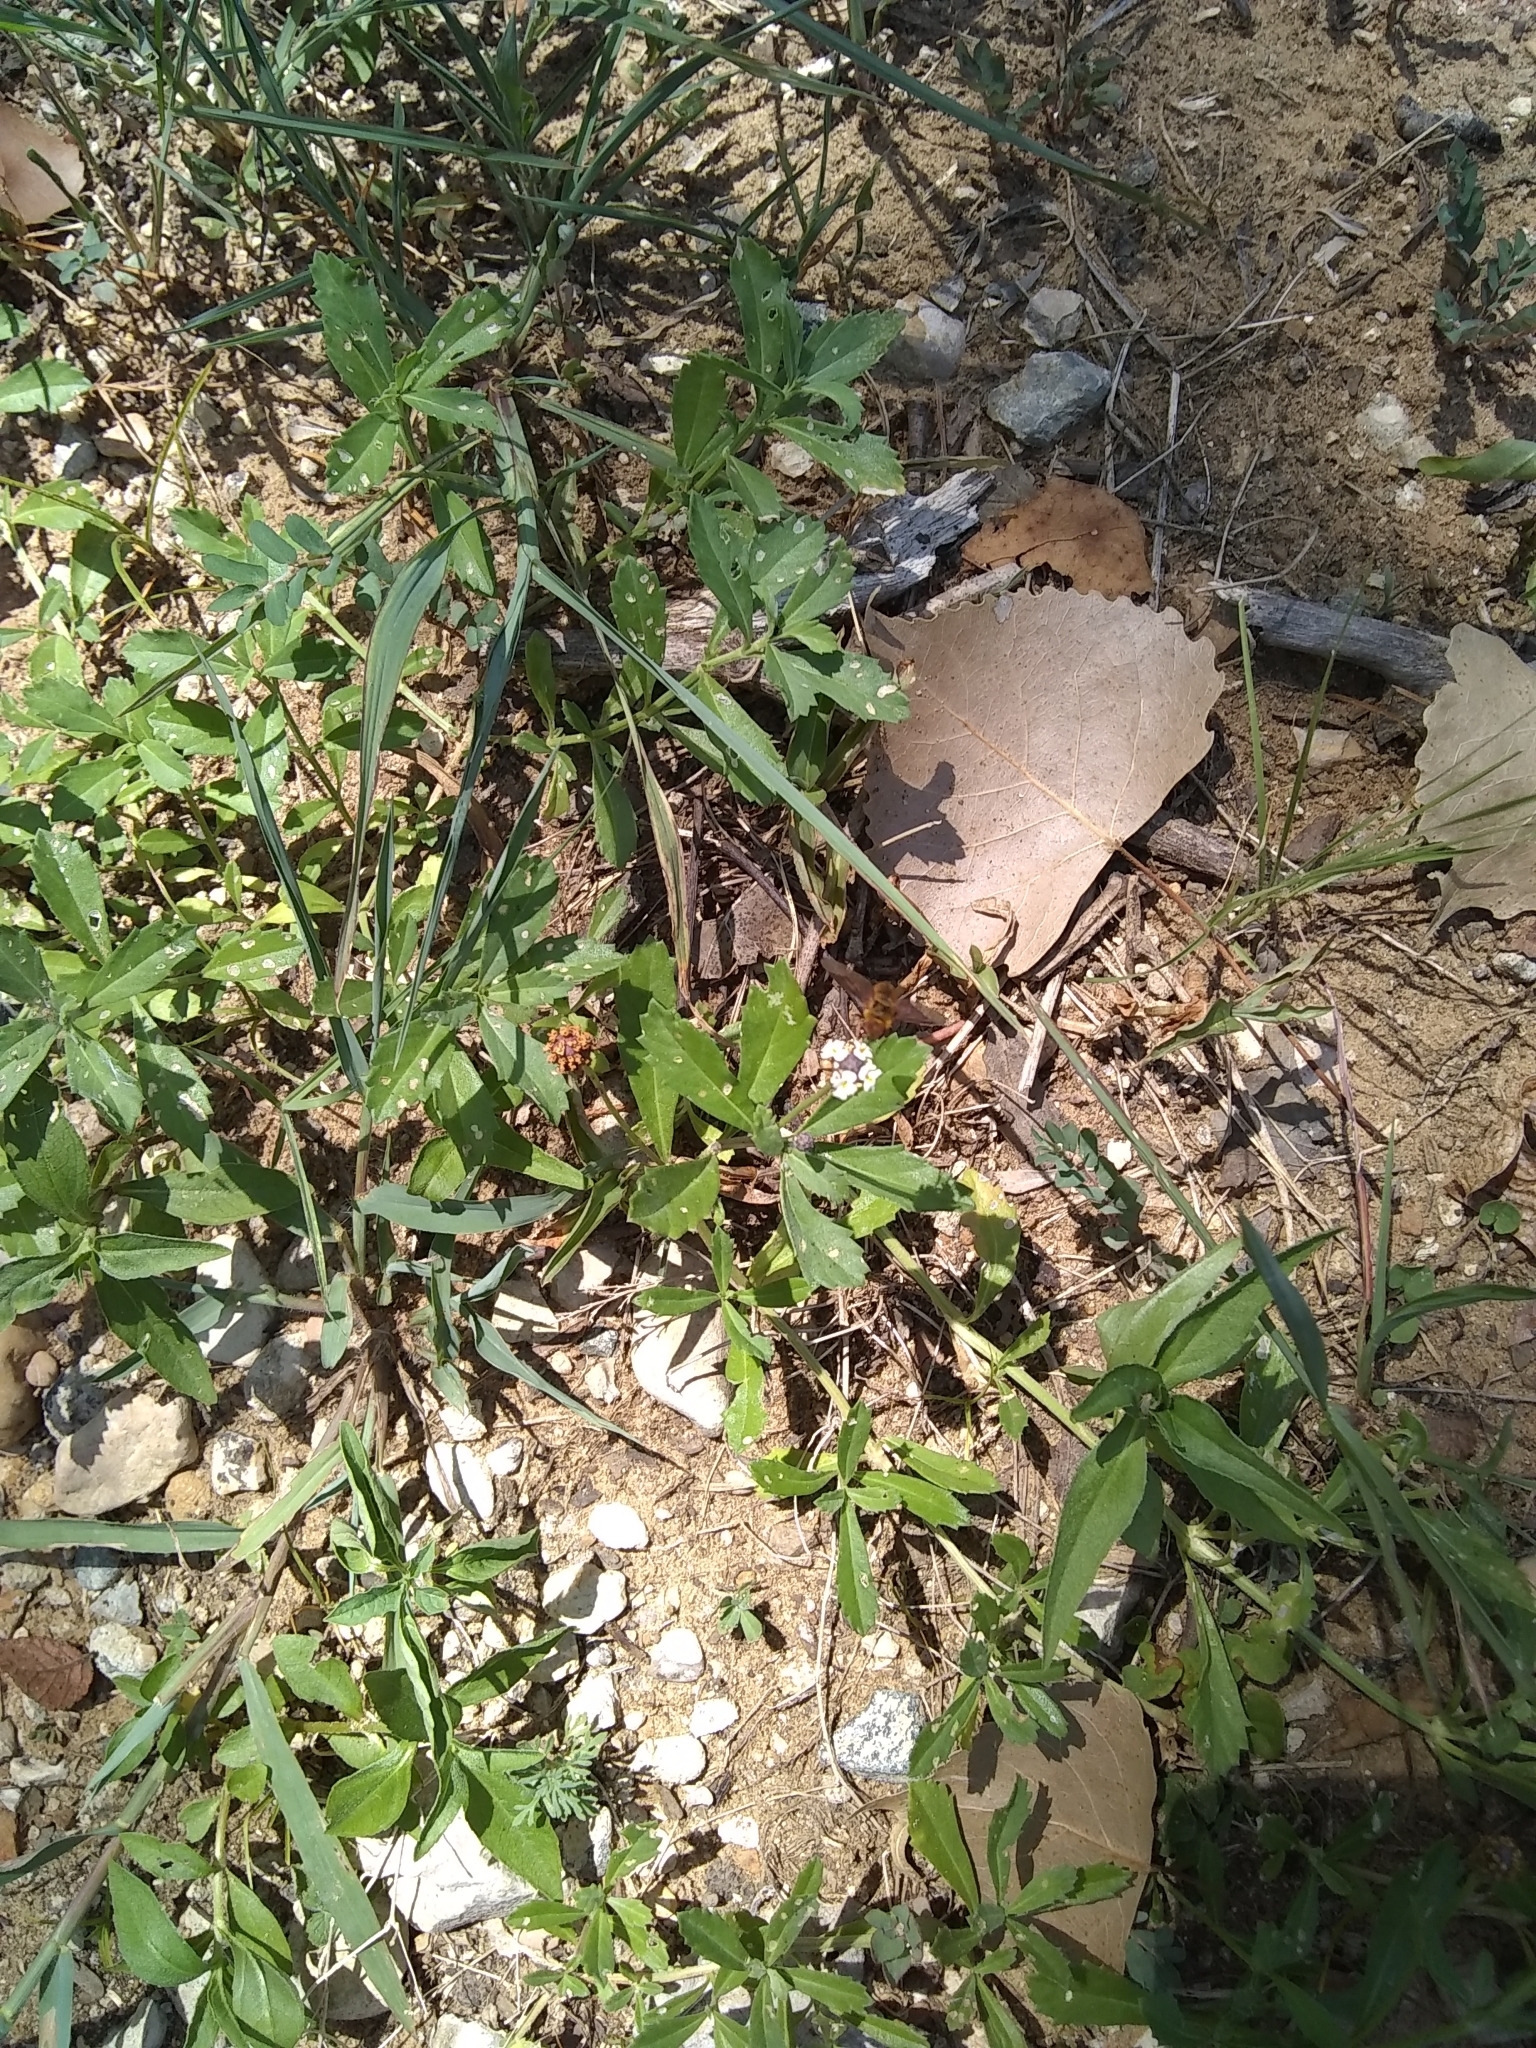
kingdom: Plantae
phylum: Tracheophyta
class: Magnoliopsida
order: Lamiales
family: Verbenaceae
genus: Phyla
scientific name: Phyla nodiflora
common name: Frogfruit
